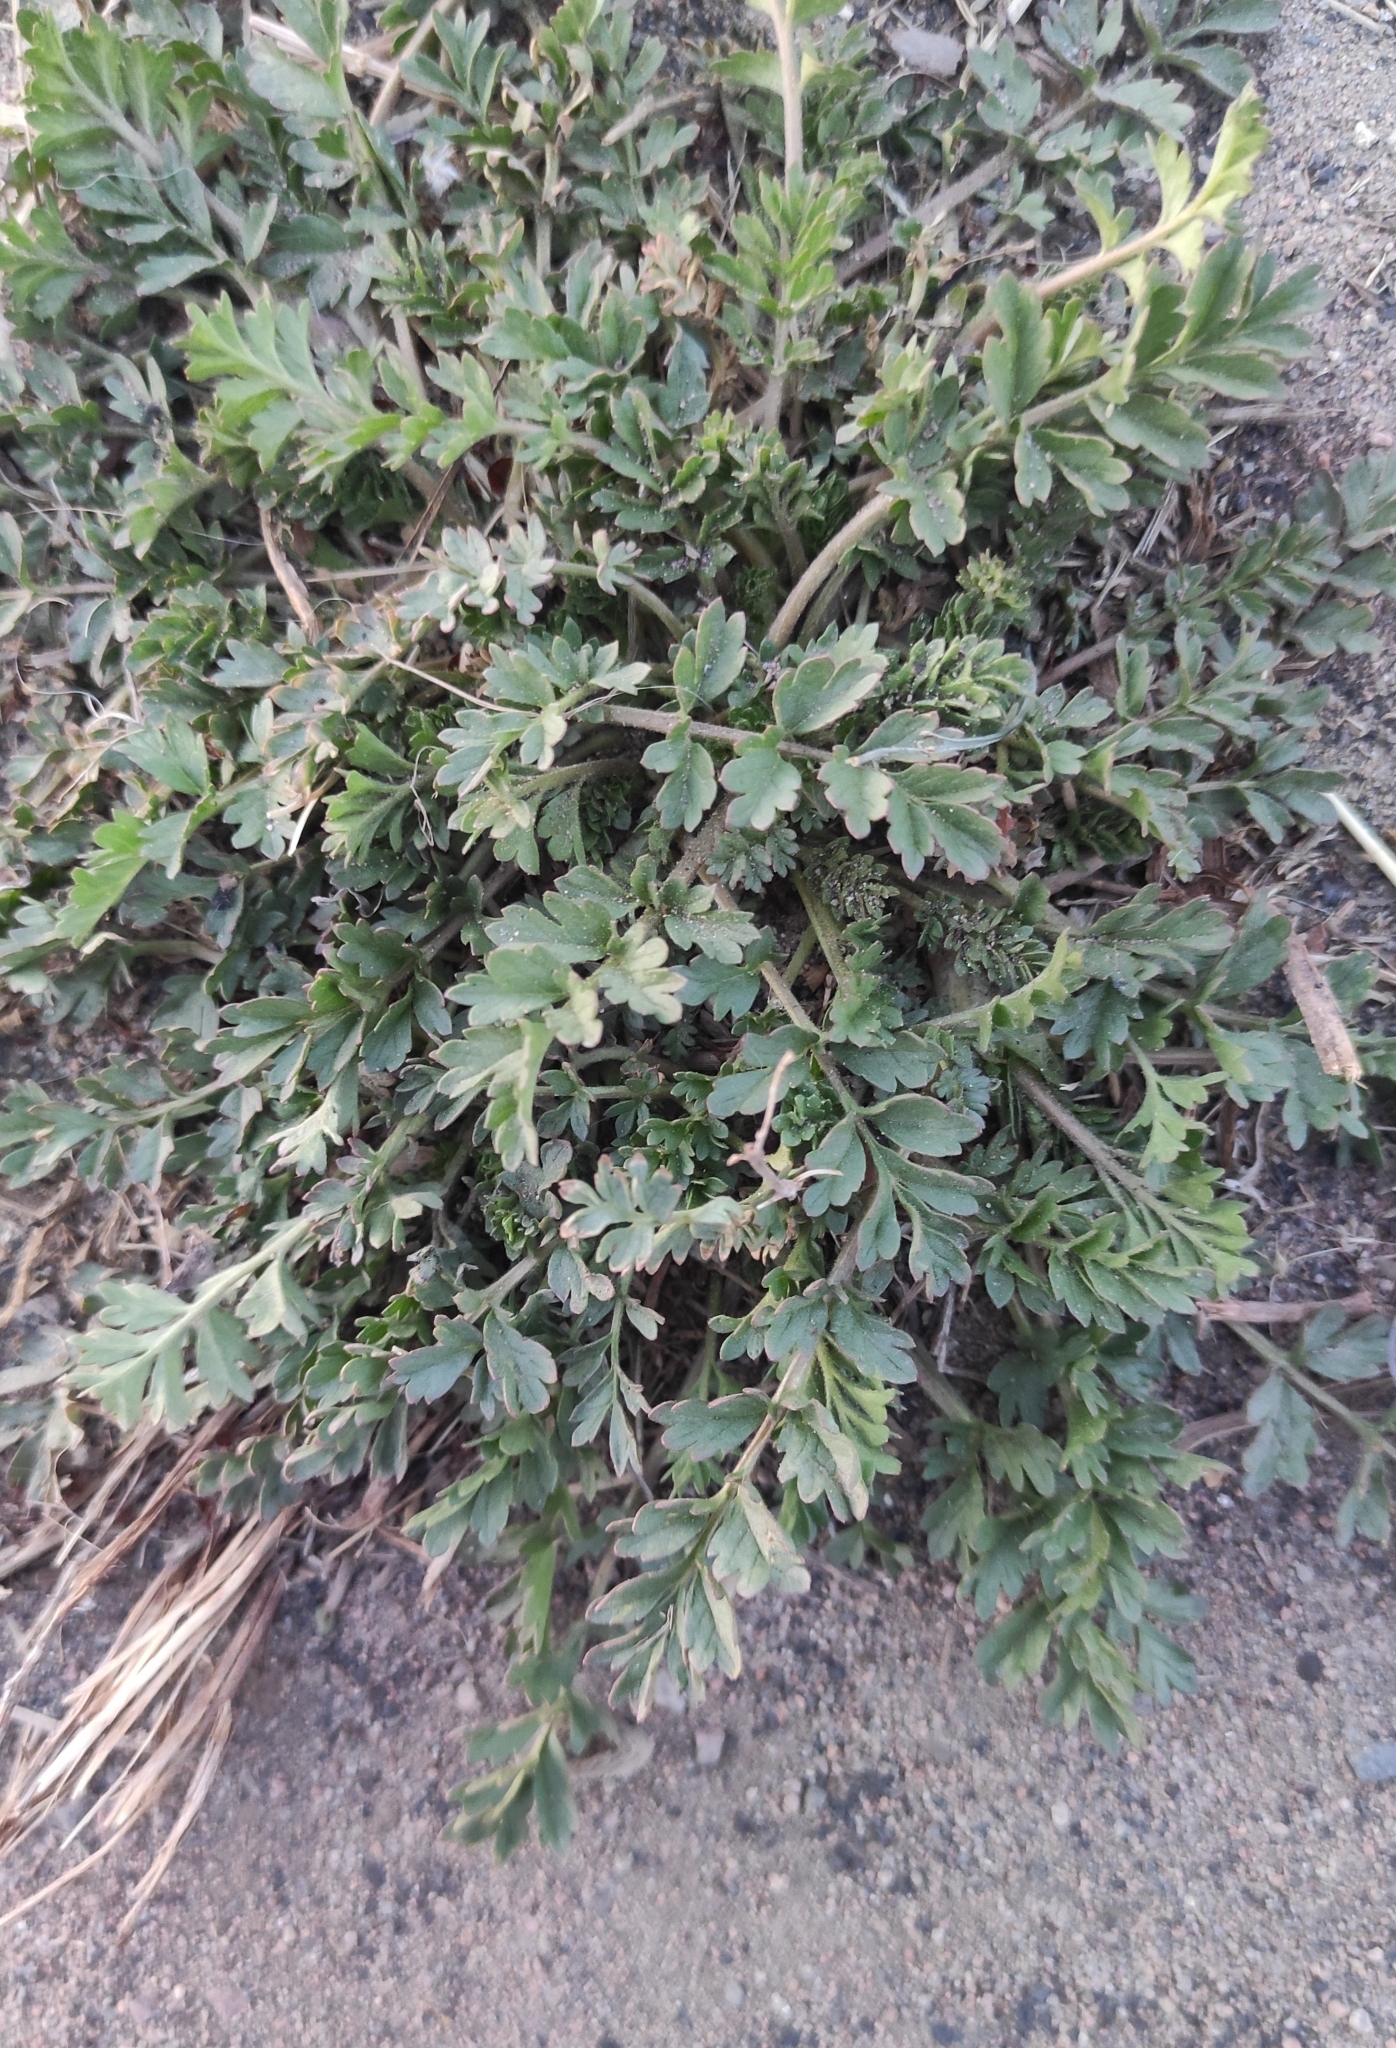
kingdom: Plantae
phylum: Tracheophyta
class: Magnoliopsida
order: Rosales
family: Rosaceae
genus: Potentilla
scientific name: Potentilla supina
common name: Prostrate cinquefoil
